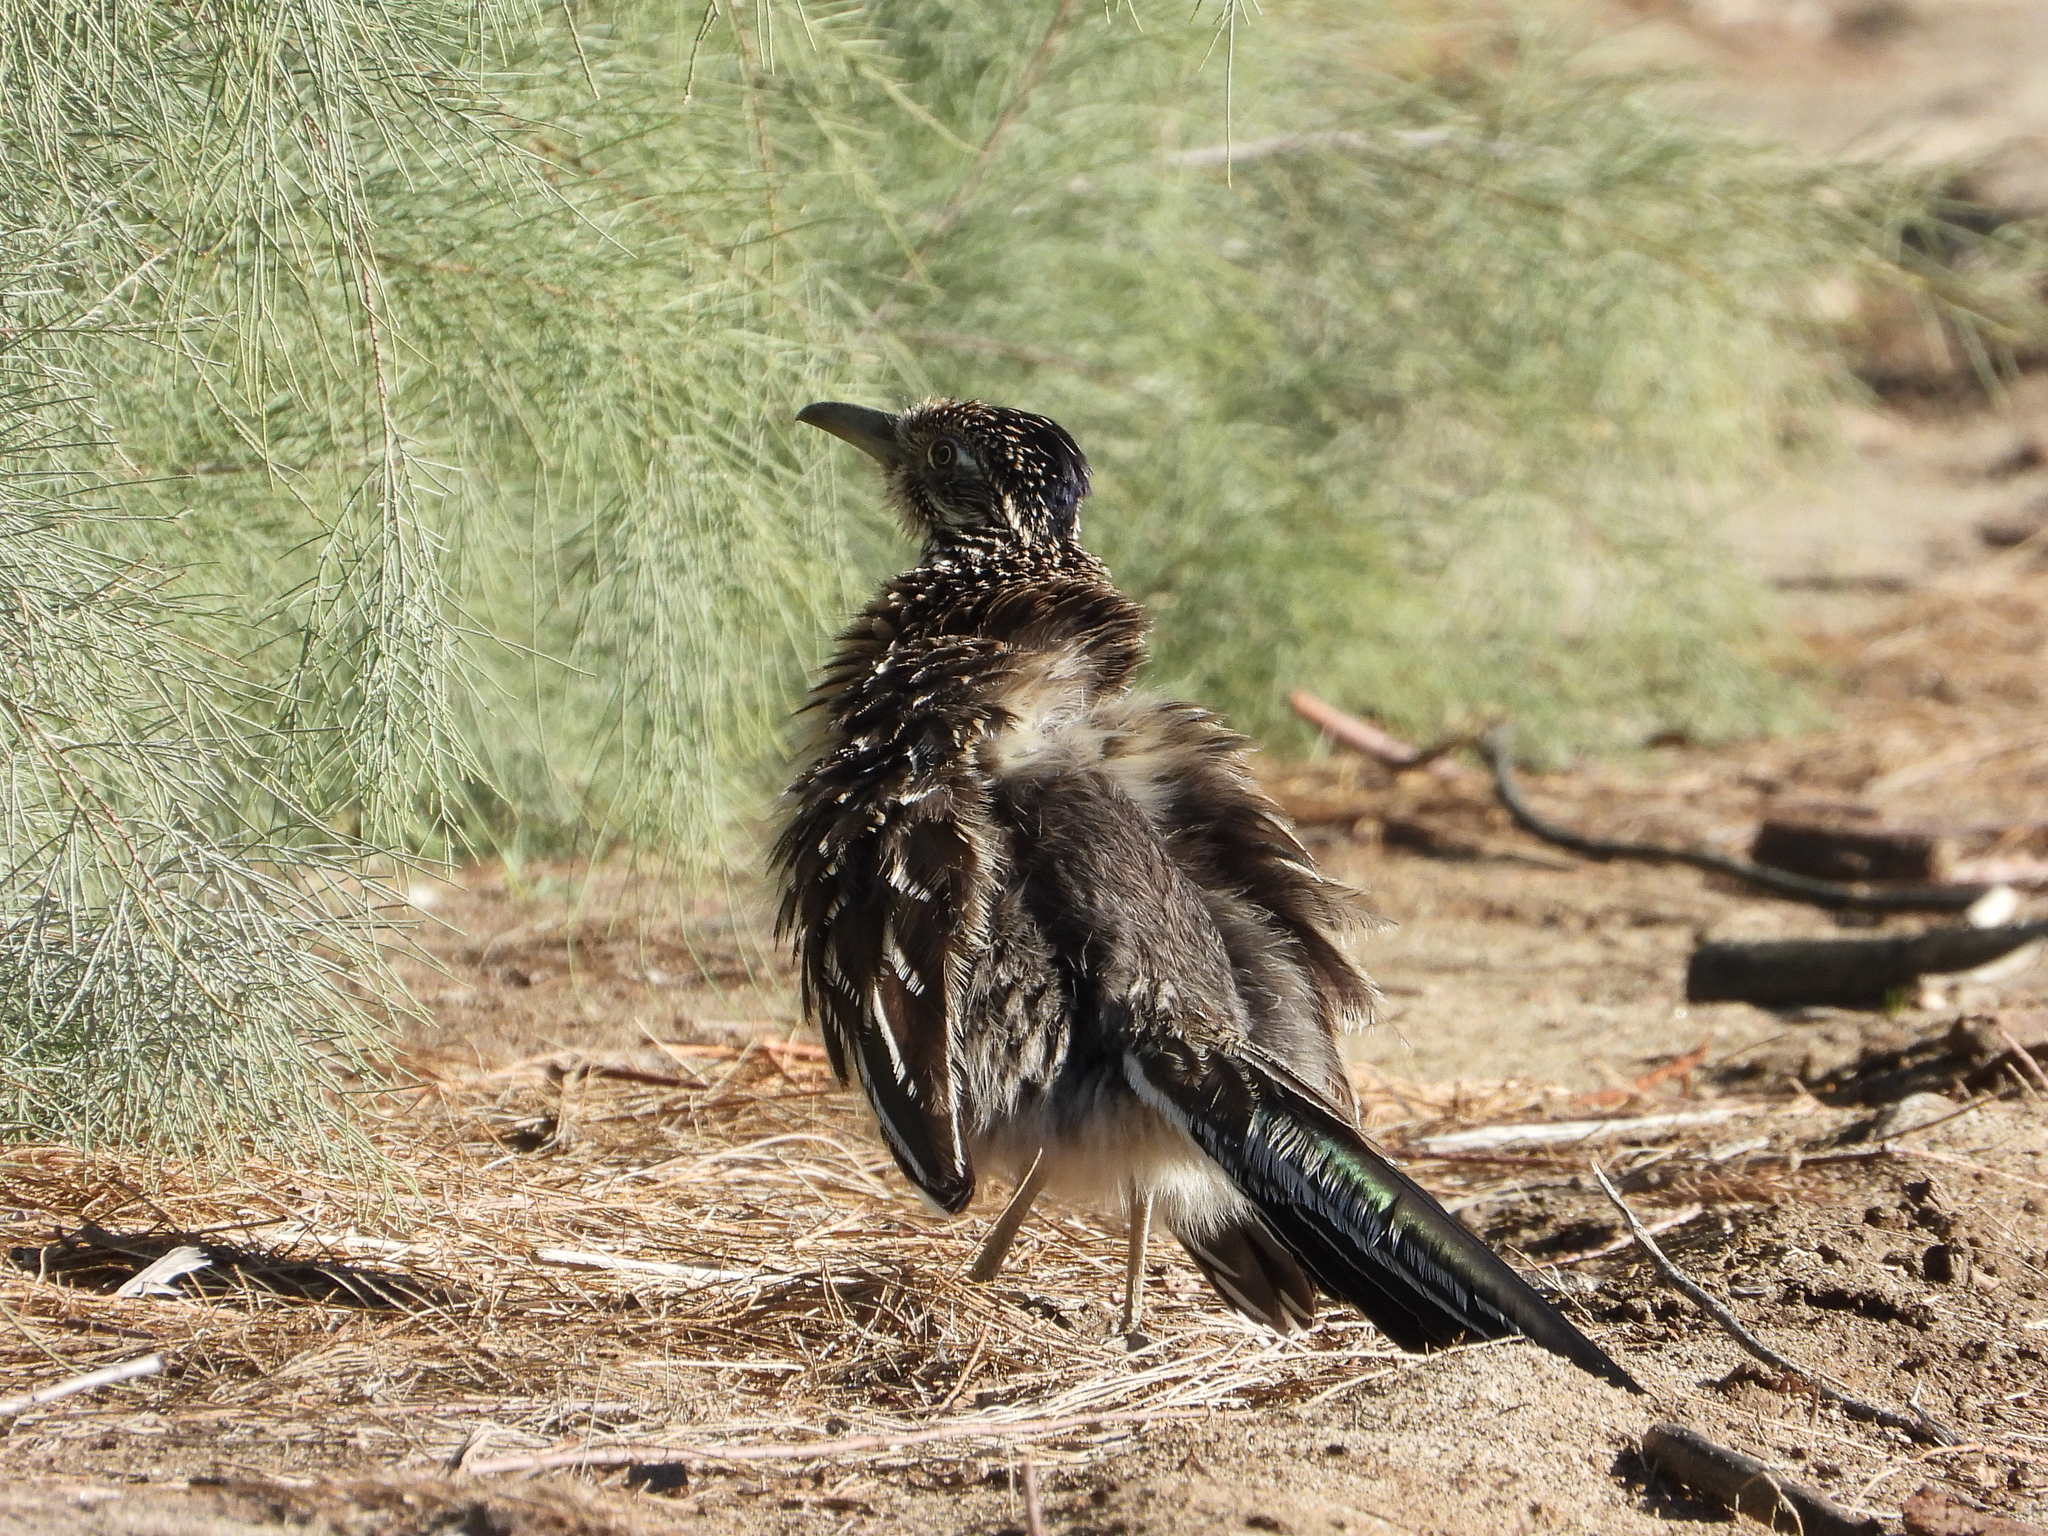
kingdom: Animalia
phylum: Chordata
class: Aves
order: Cuculiformes
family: Cuculidae
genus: Geococcyx
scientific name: Geococcyx californianus
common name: Greater roadrunner
